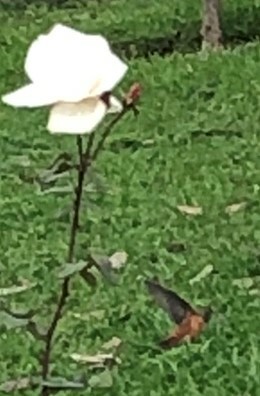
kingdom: Animalia
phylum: Chordata
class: Aves
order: Apodiformes
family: Trochilidae
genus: Amazilis
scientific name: Amazilis amazilia
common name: Amazilia hummingbird
